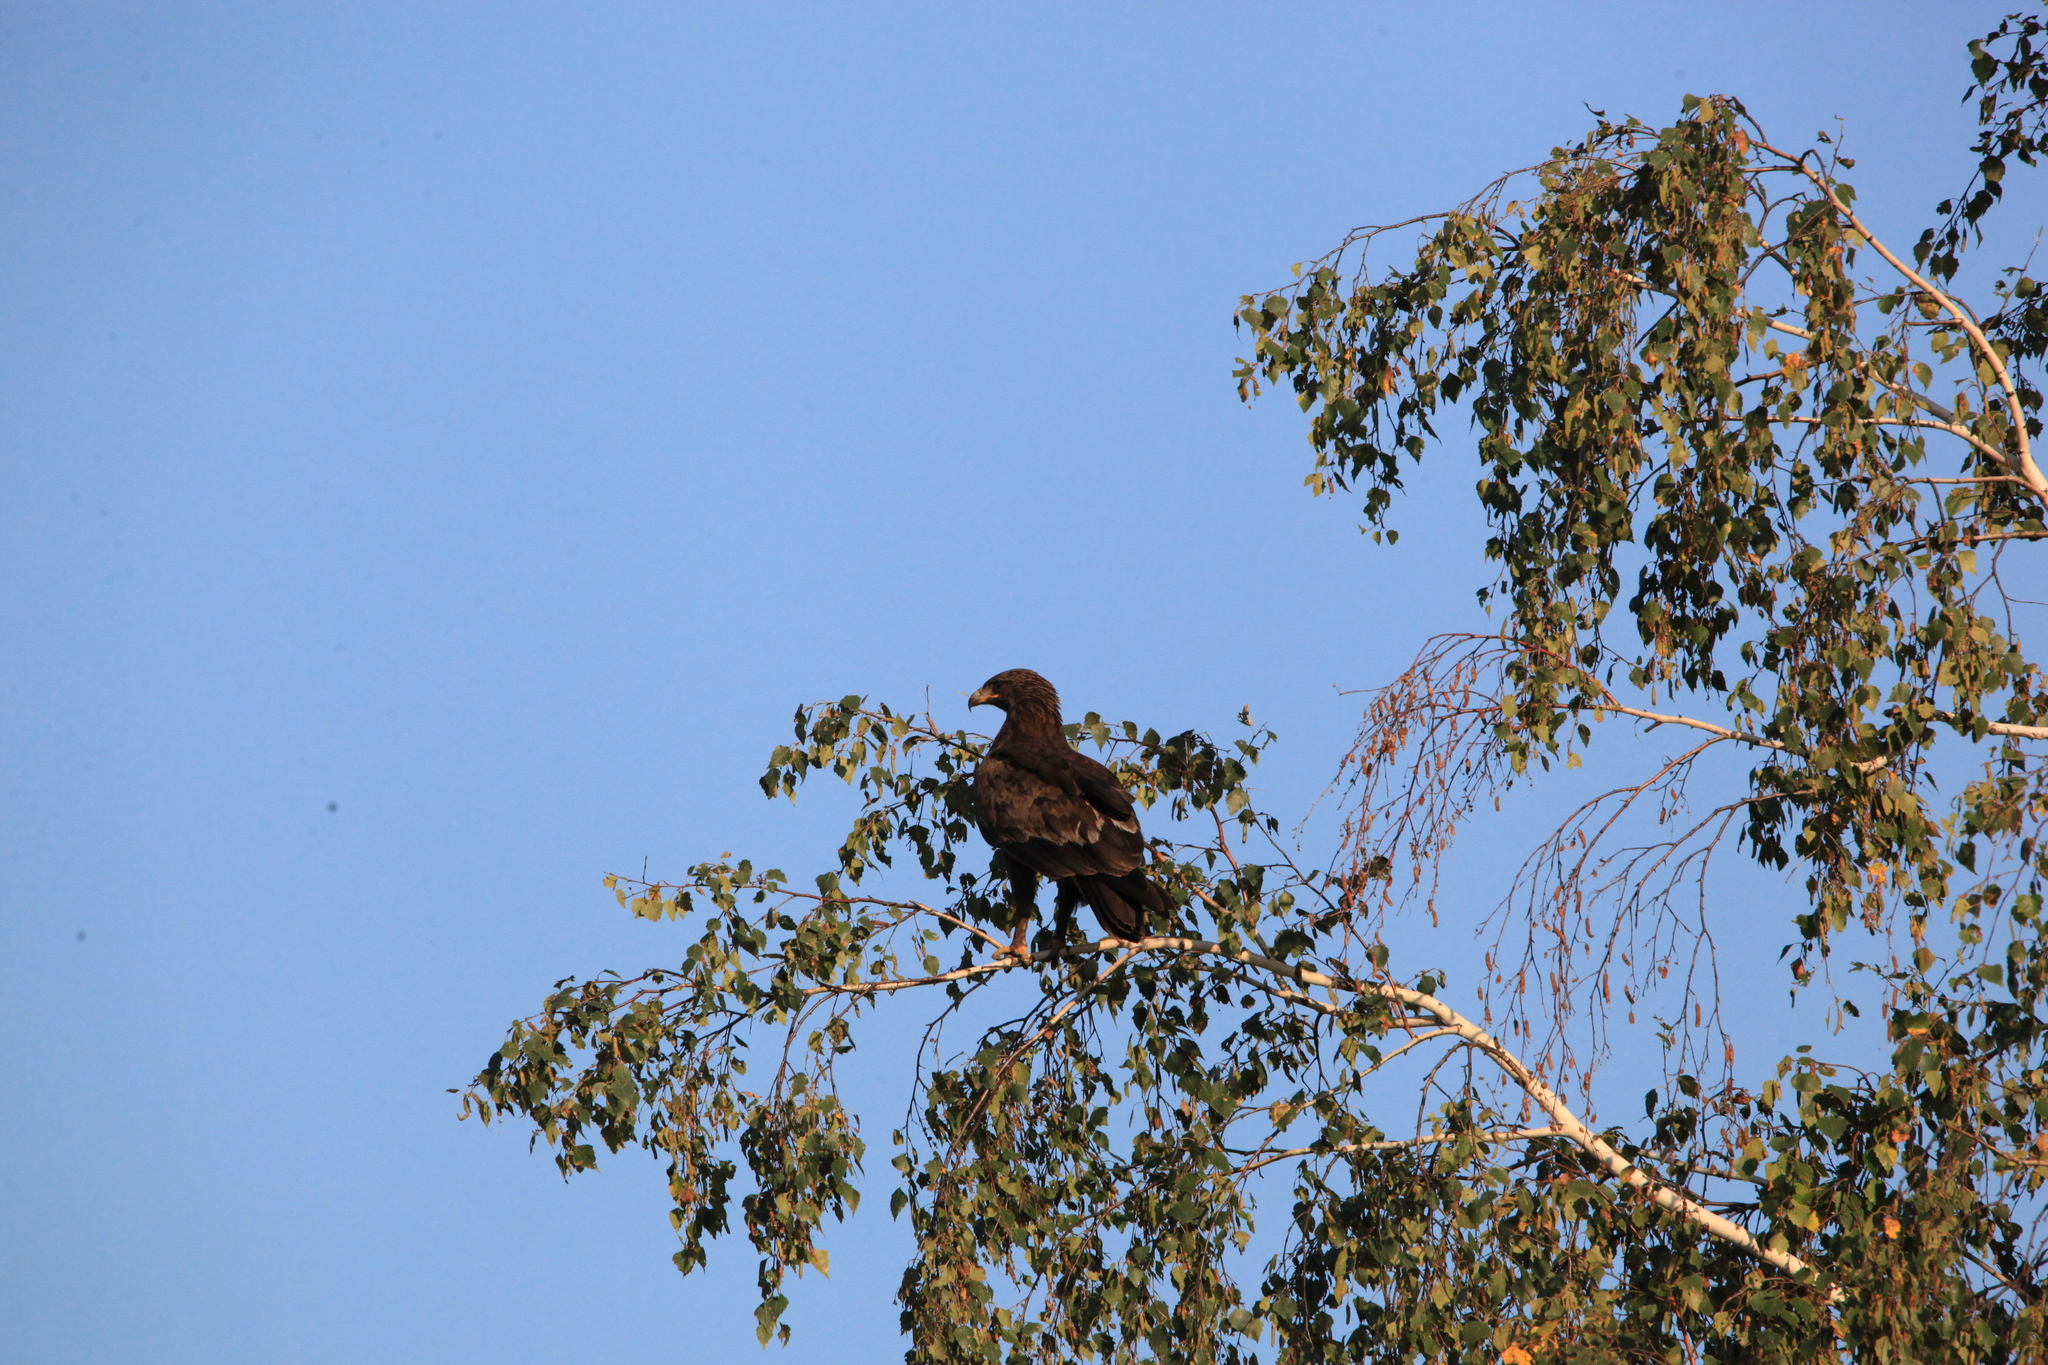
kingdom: Animalia
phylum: Chordata
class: Aves
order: Accipitriformes
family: Accipitridae
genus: Aquila
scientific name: Aquila clanga
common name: Greater spotted eagle
